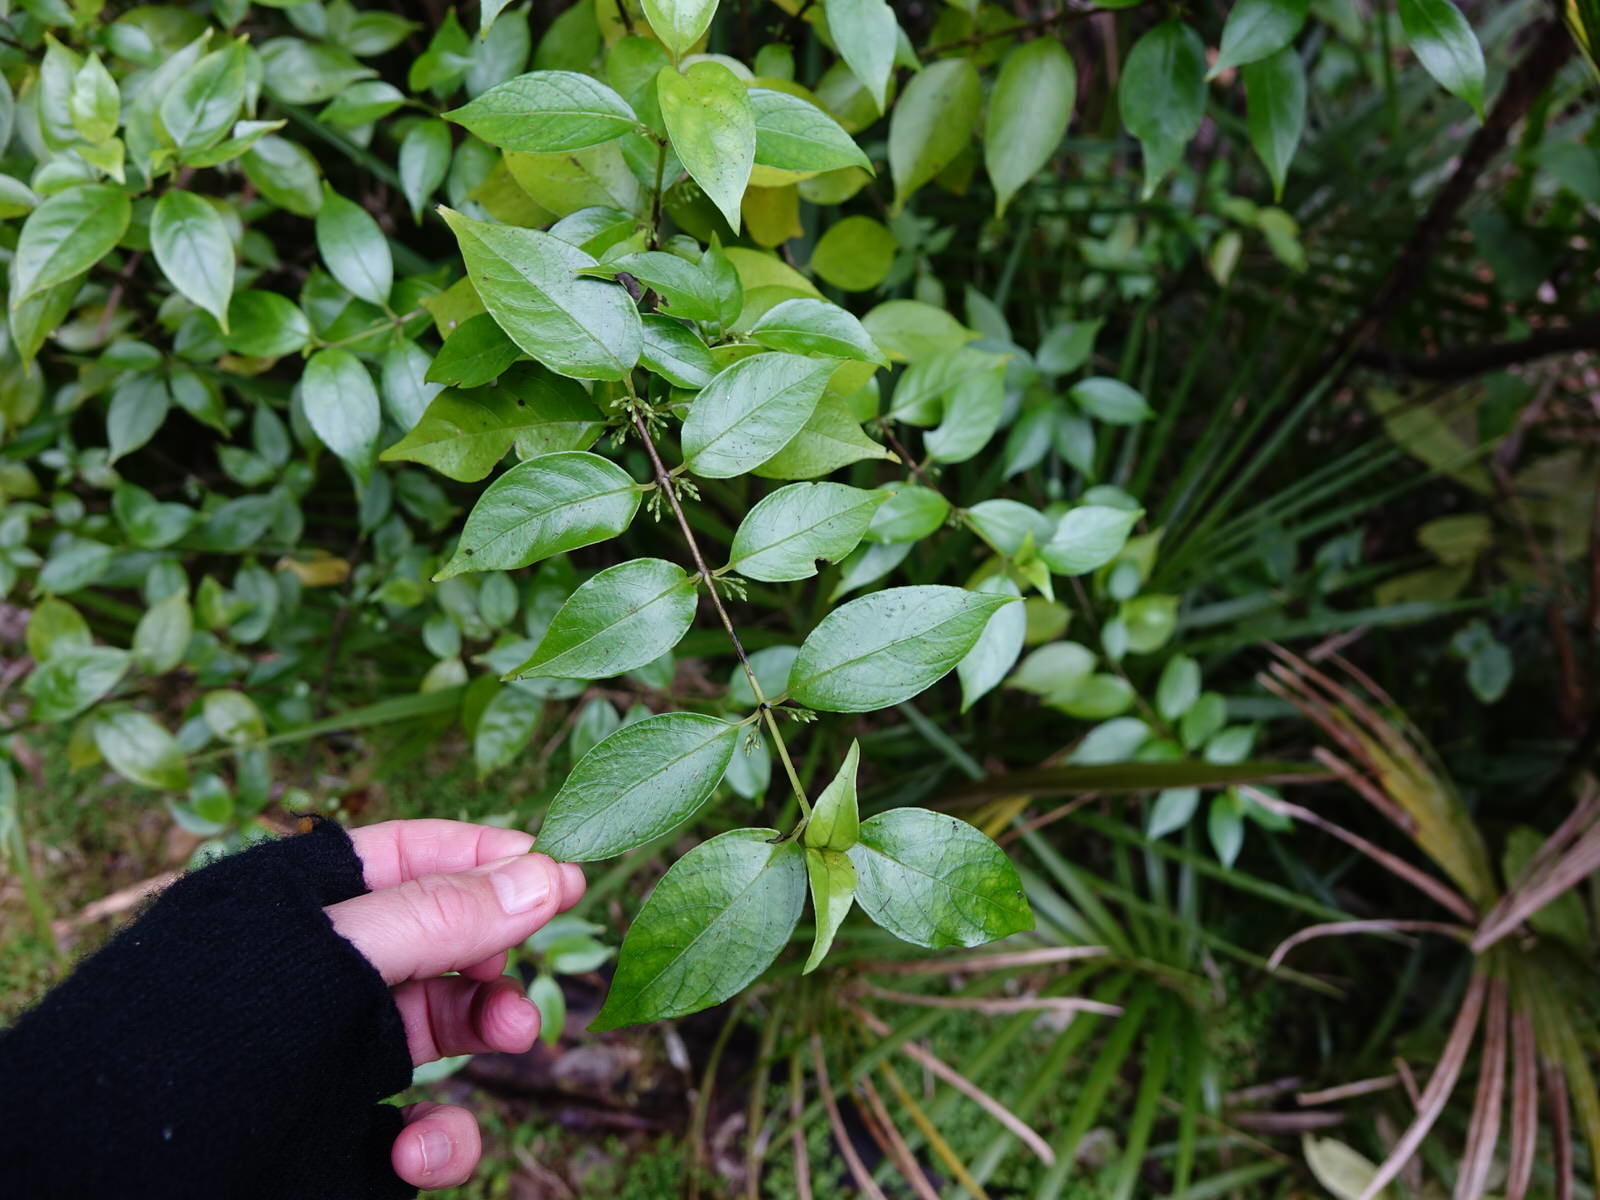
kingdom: Plantae
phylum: Tracheophyta
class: Magnoliopsida
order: Gentianales
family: Loganiaceae
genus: Geniostoma
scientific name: Geniostoma ligustrifolium
